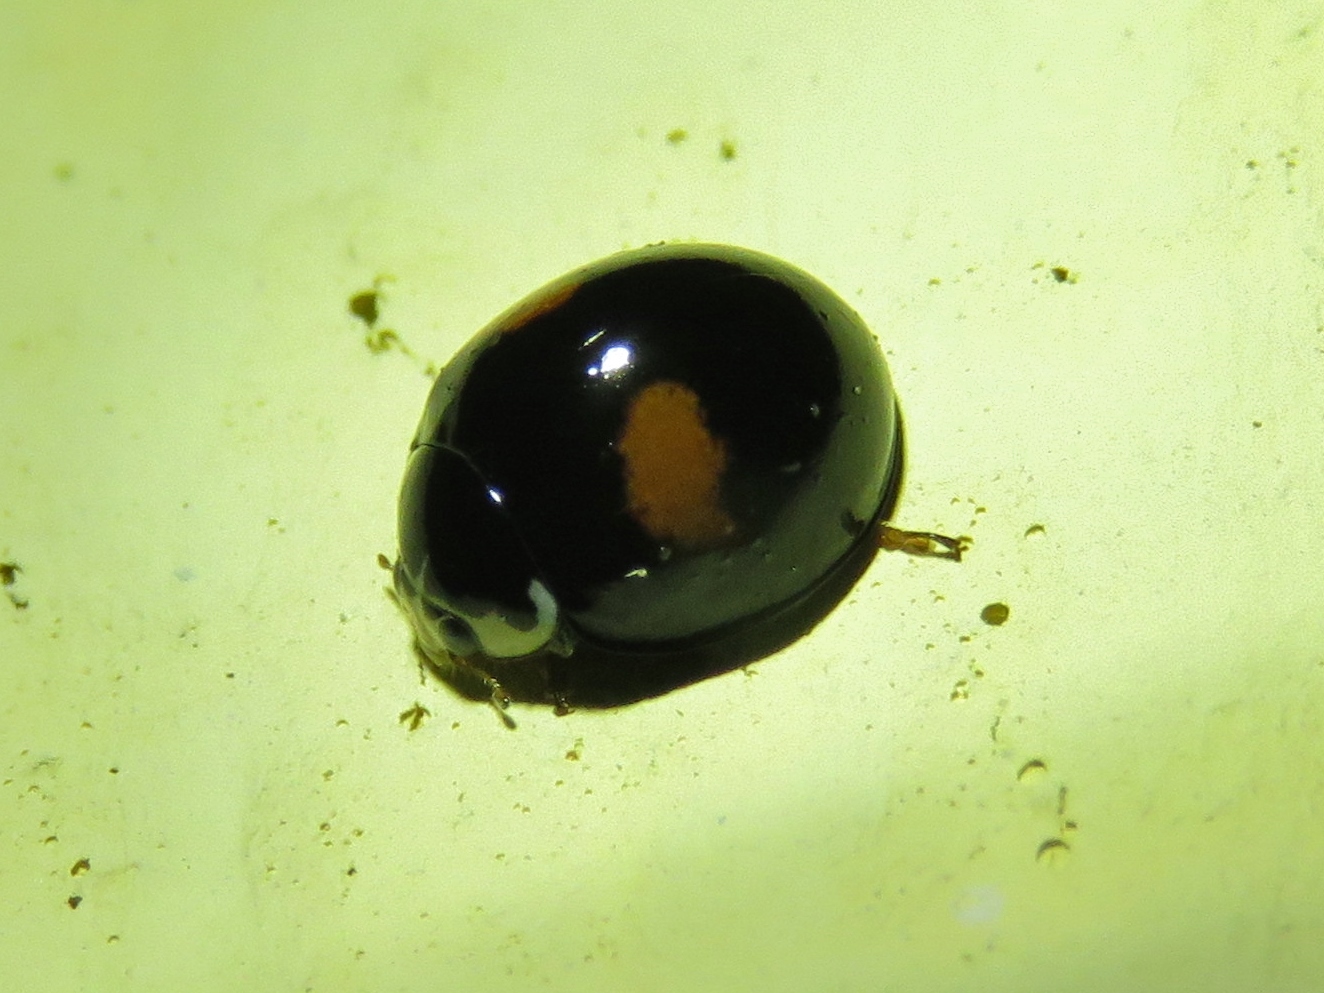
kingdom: Animalia
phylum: Arthropoda
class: Insecta
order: Coleoptera
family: Coccinellidae
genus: Olla
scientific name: Olla v-nigrum
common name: Ashy gray lady beetle
